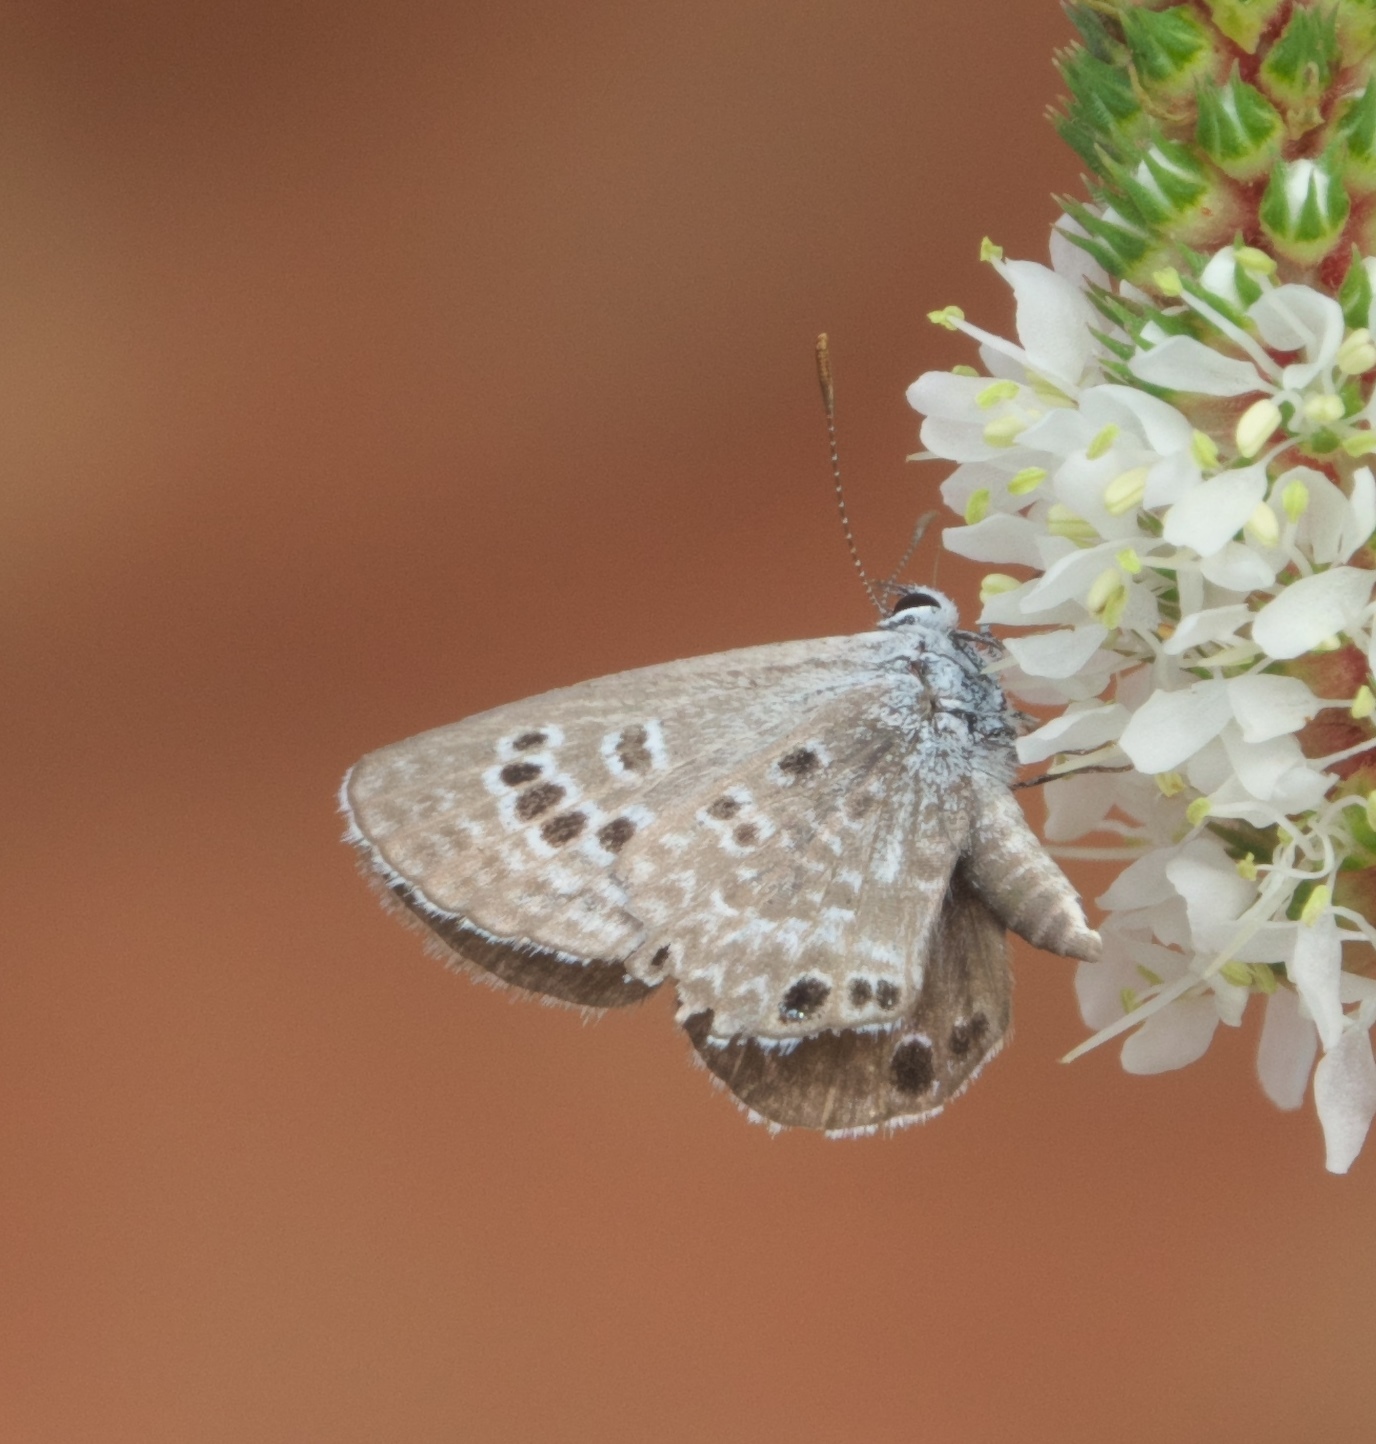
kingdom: Animalia
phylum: Arthropoda
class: Insecta
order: Lepidoptera
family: Lycaenidae
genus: Echinargus
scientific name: Echinargus isola
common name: Reakirt's blue
